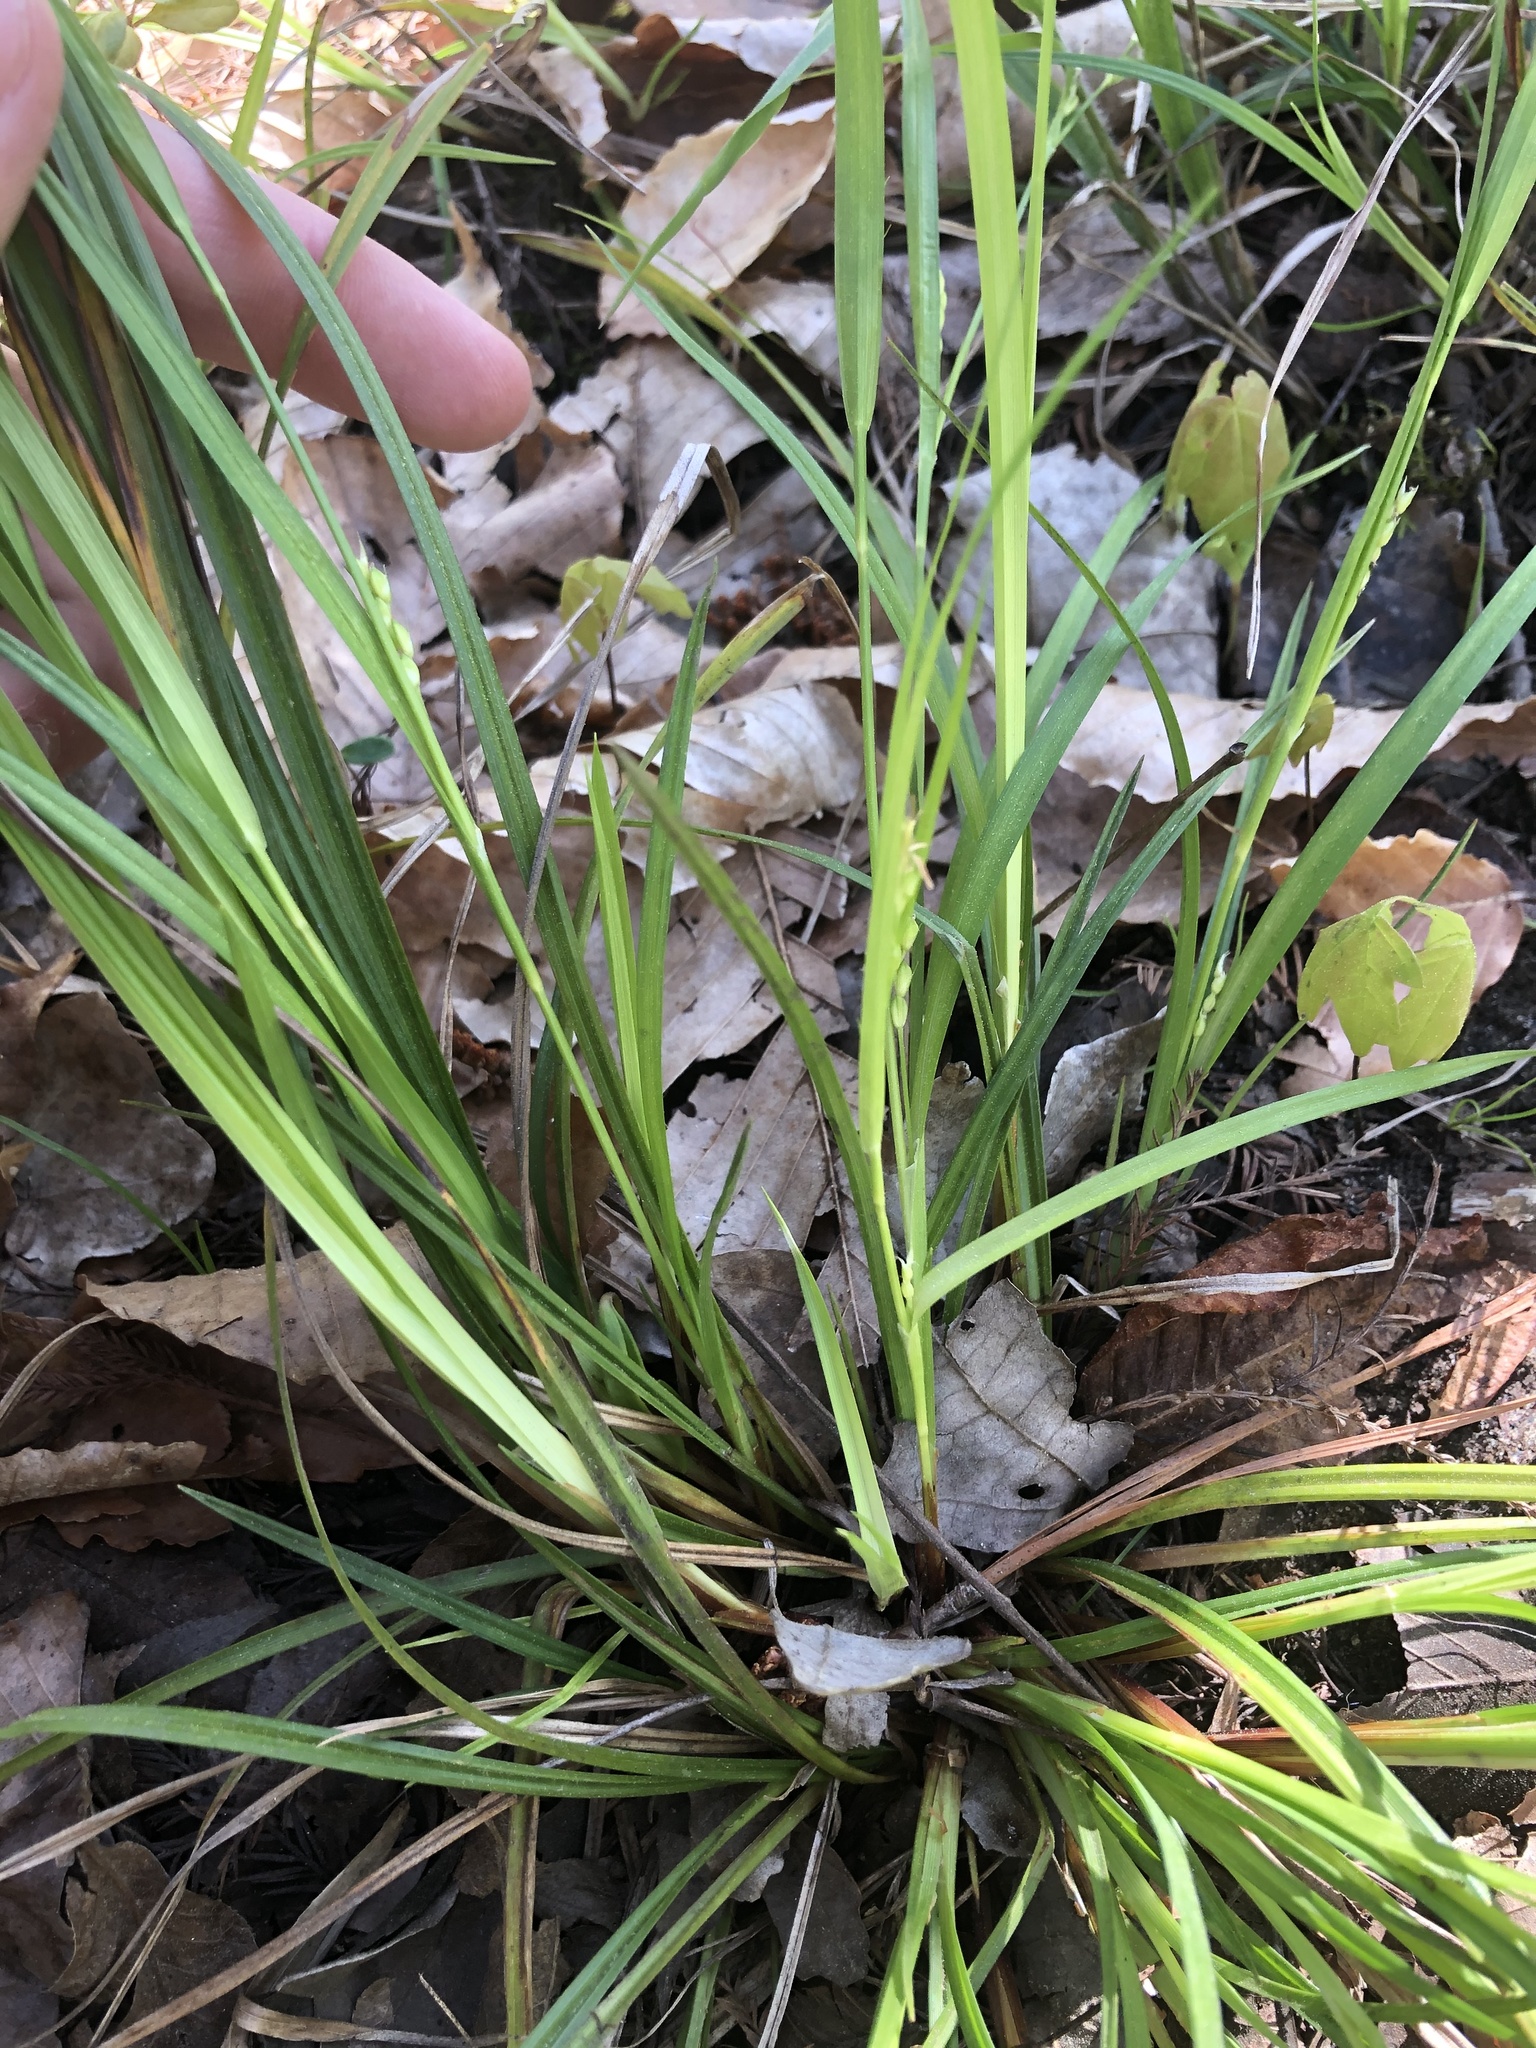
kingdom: Plantae
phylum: Tracheophyta
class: Liliopsida
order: Poales
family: Cyperaceae
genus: Carex
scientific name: Carex godfreyi
